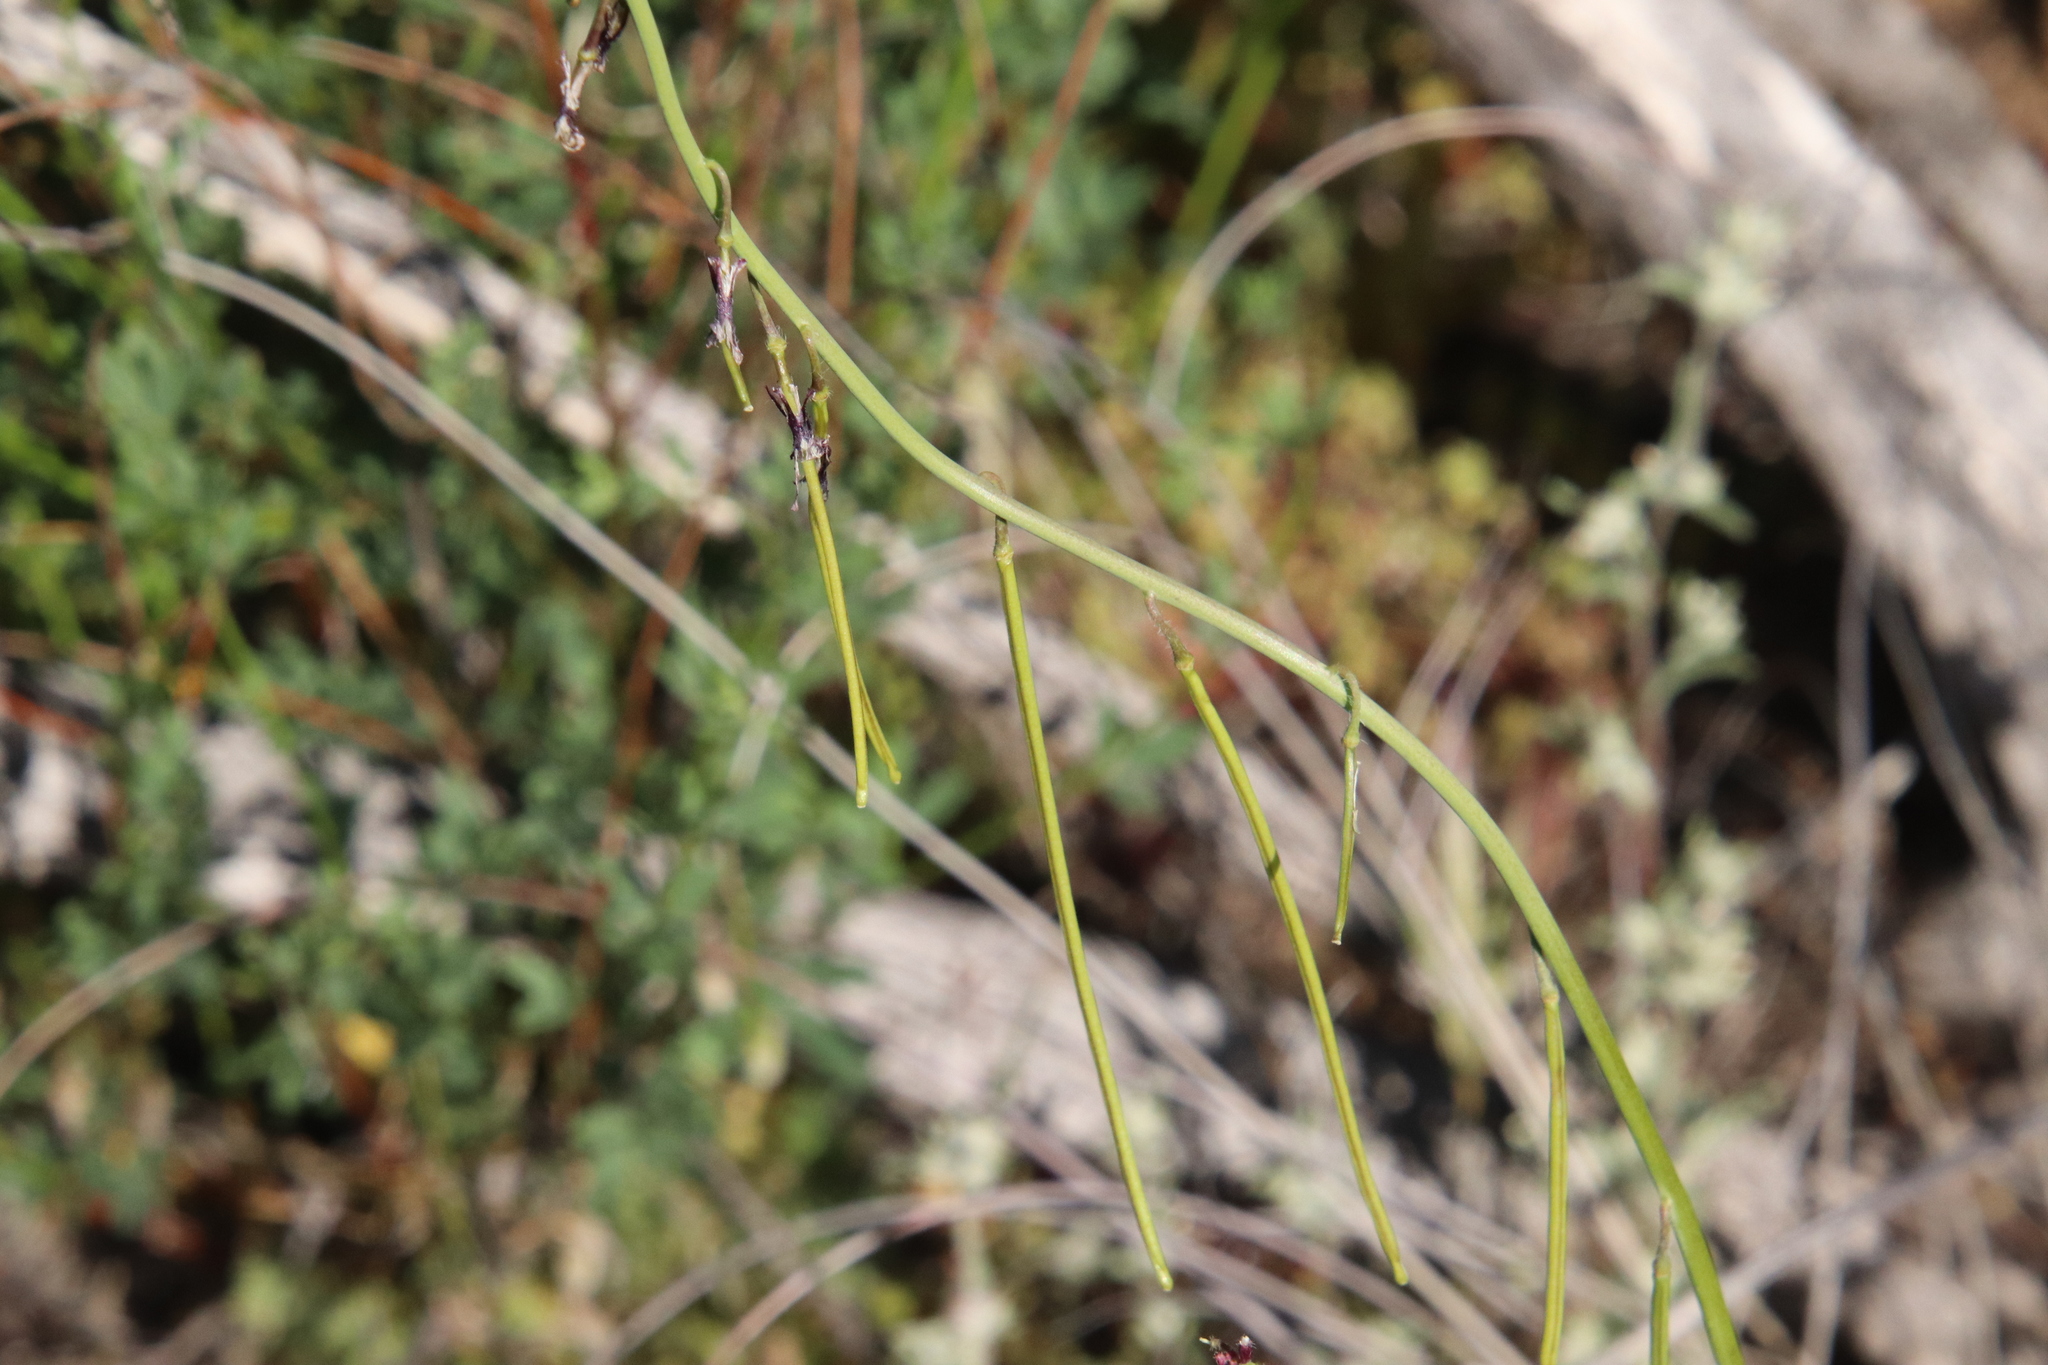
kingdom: Plantae
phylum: Tracheophyta
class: Magnoliopsida
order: Brassicales
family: Brassicaceae
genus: Streptanthus
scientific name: Streptanthus heterophyllus
